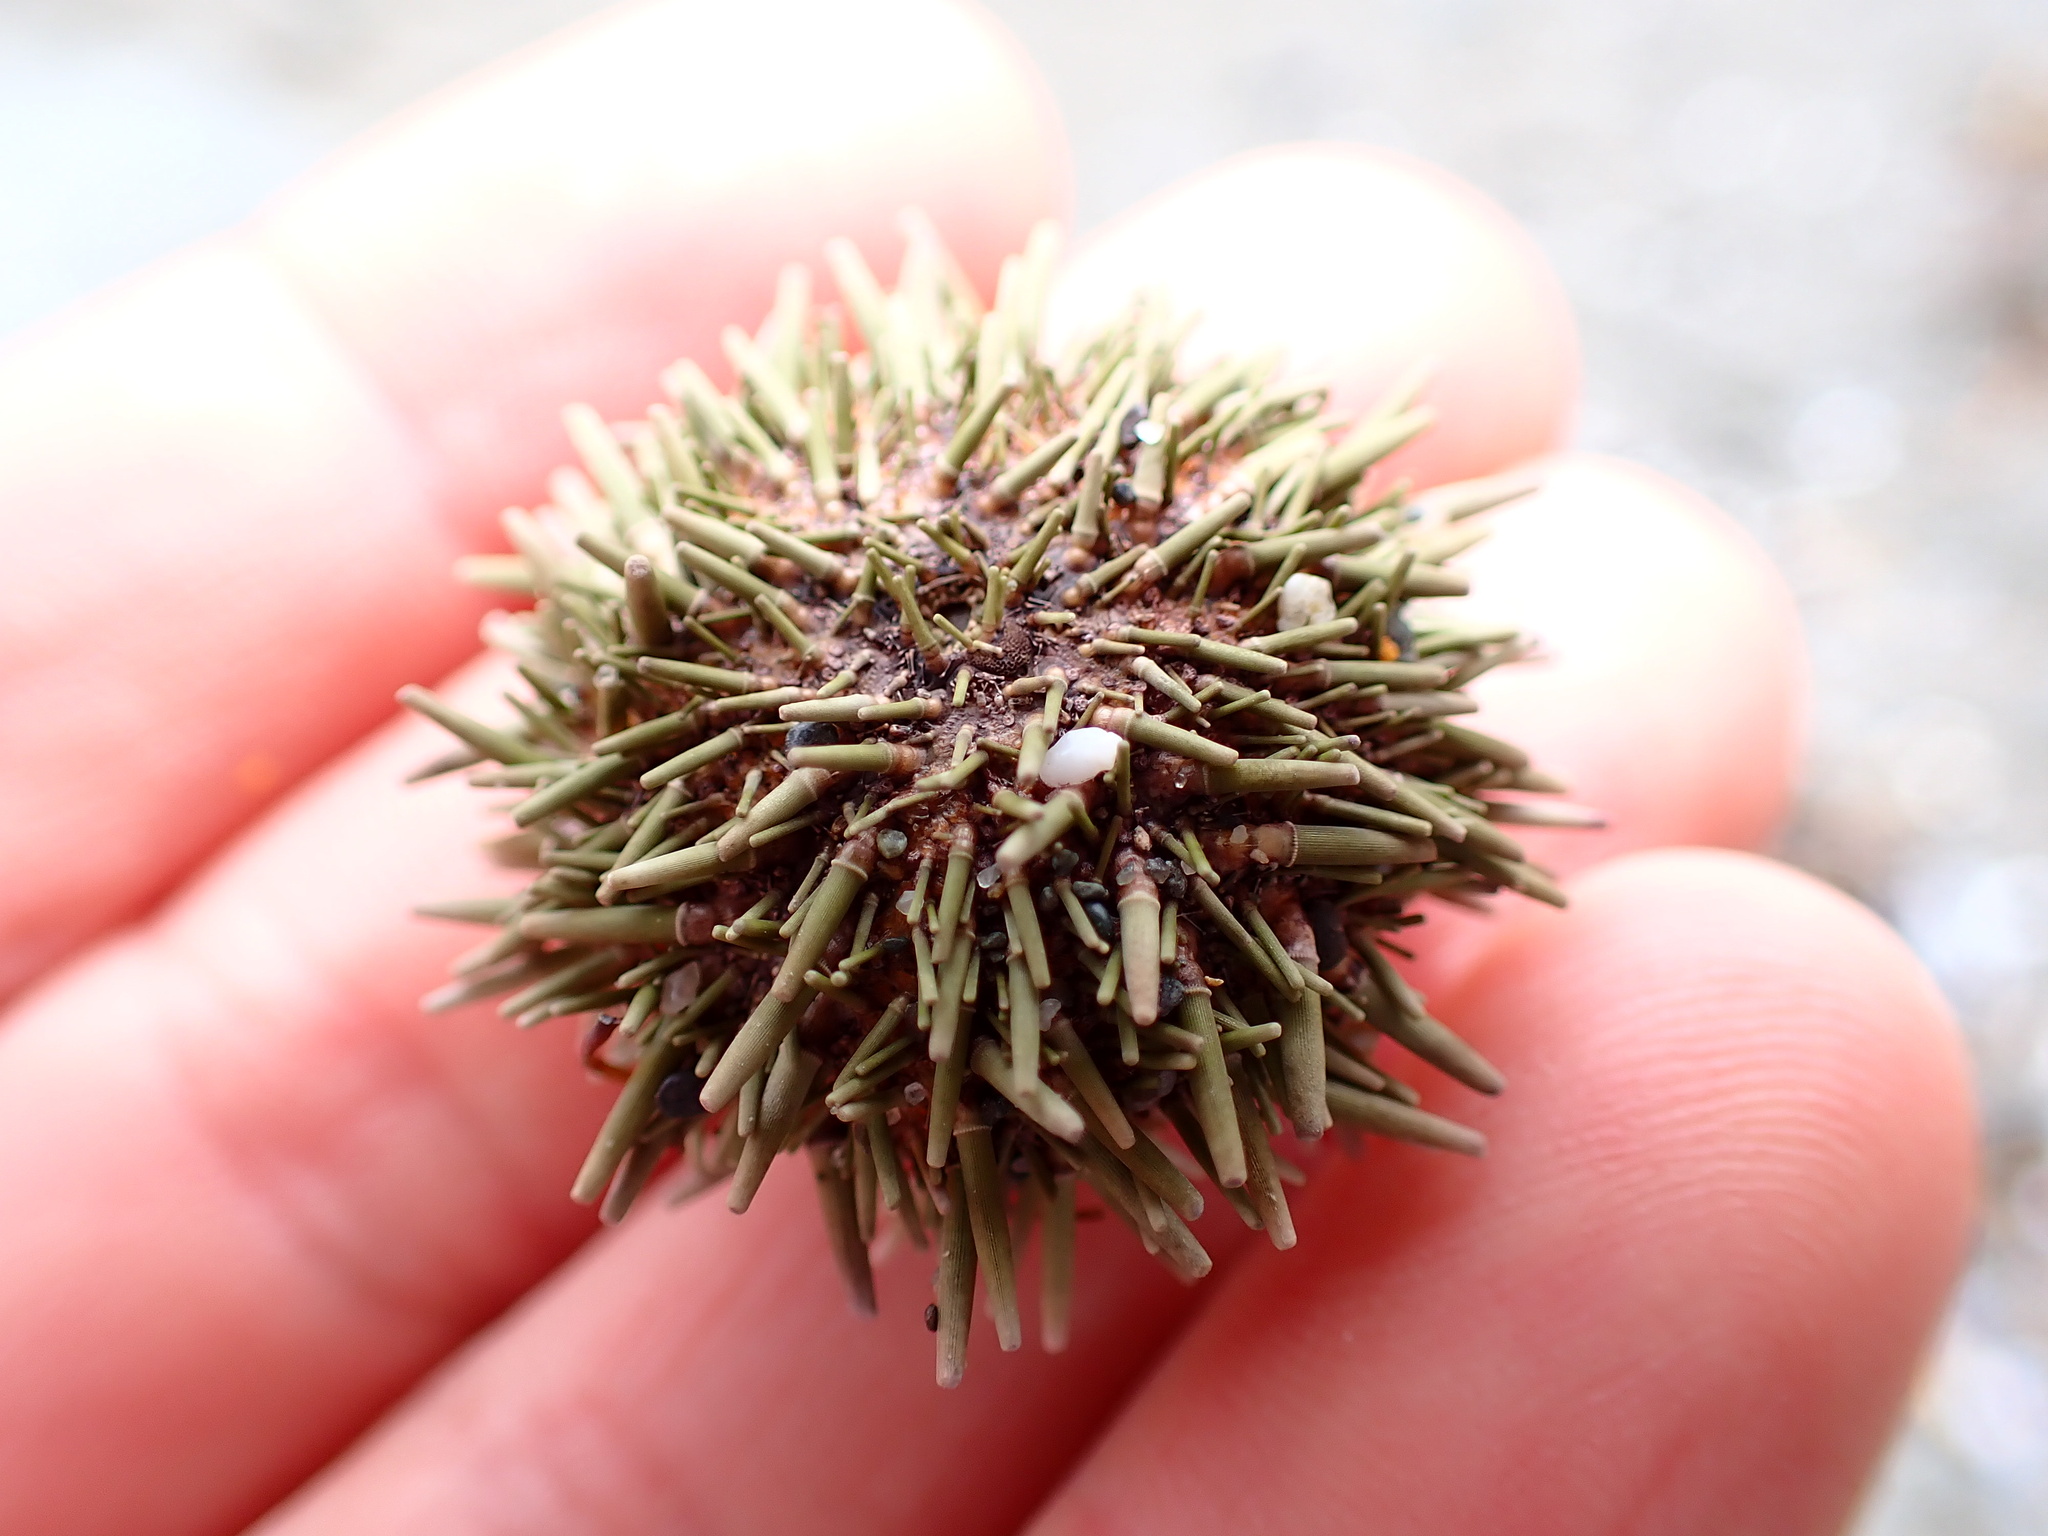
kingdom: Animalia
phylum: Echinodermata
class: Echinoidea
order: Camarodonta
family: Strongylocentrotidae
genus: Strongylocentrotus
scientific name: Strongylocentrotus purpuratus
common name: Purple sea urchin
